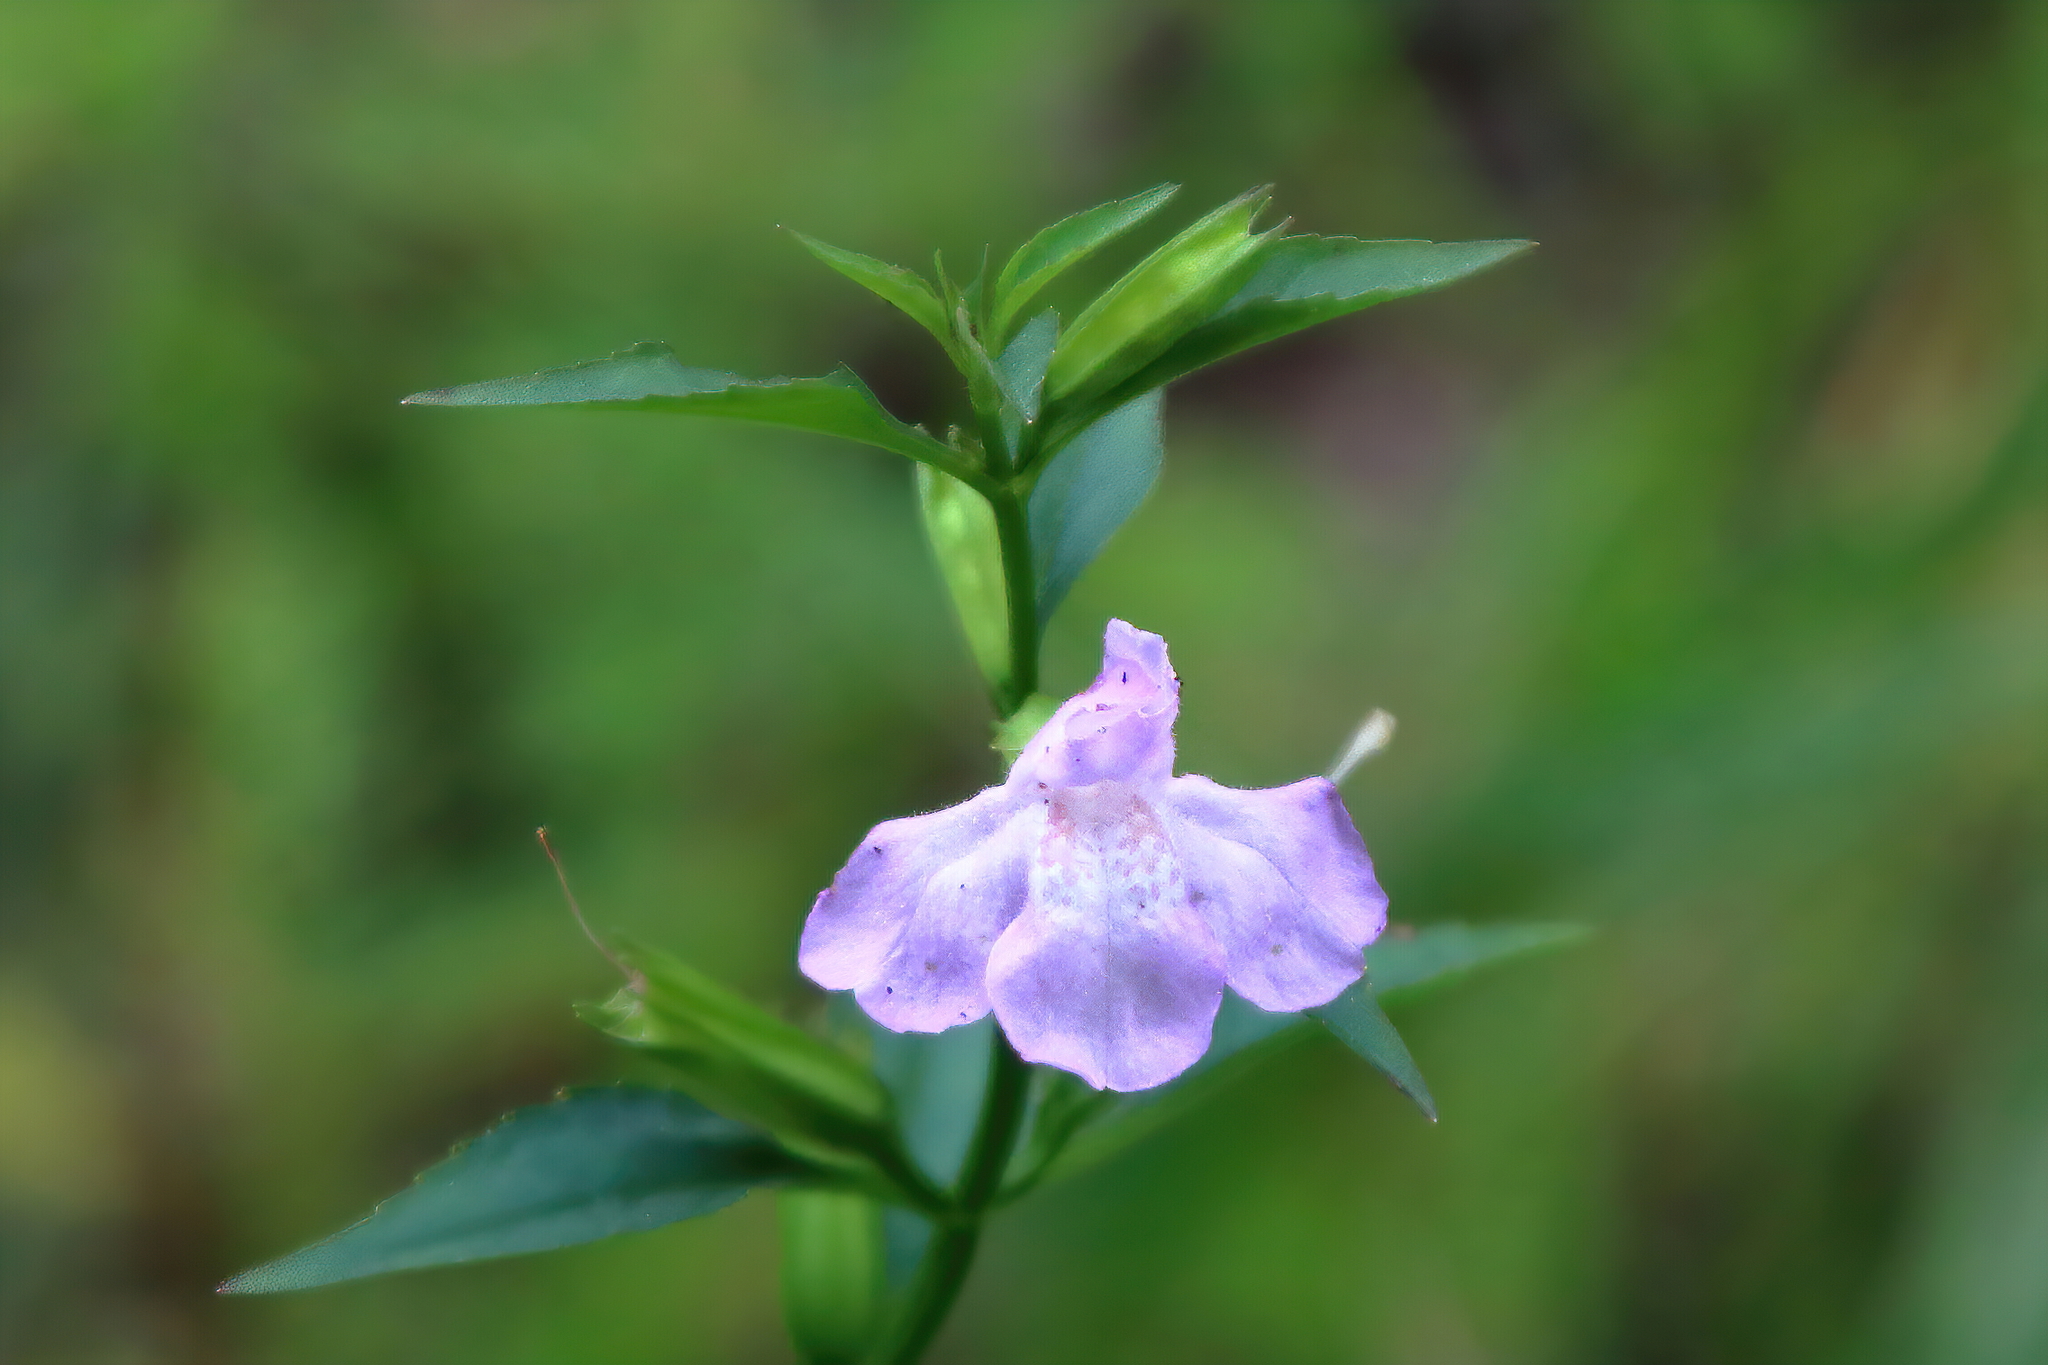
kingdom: Plantae
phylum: Tracheophyta
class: Magnoliopsida
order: Lamiales
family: Phrymaceae
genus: Mimulus
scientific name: Mimulus alatus
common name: Sharp-wing monkey-flower
